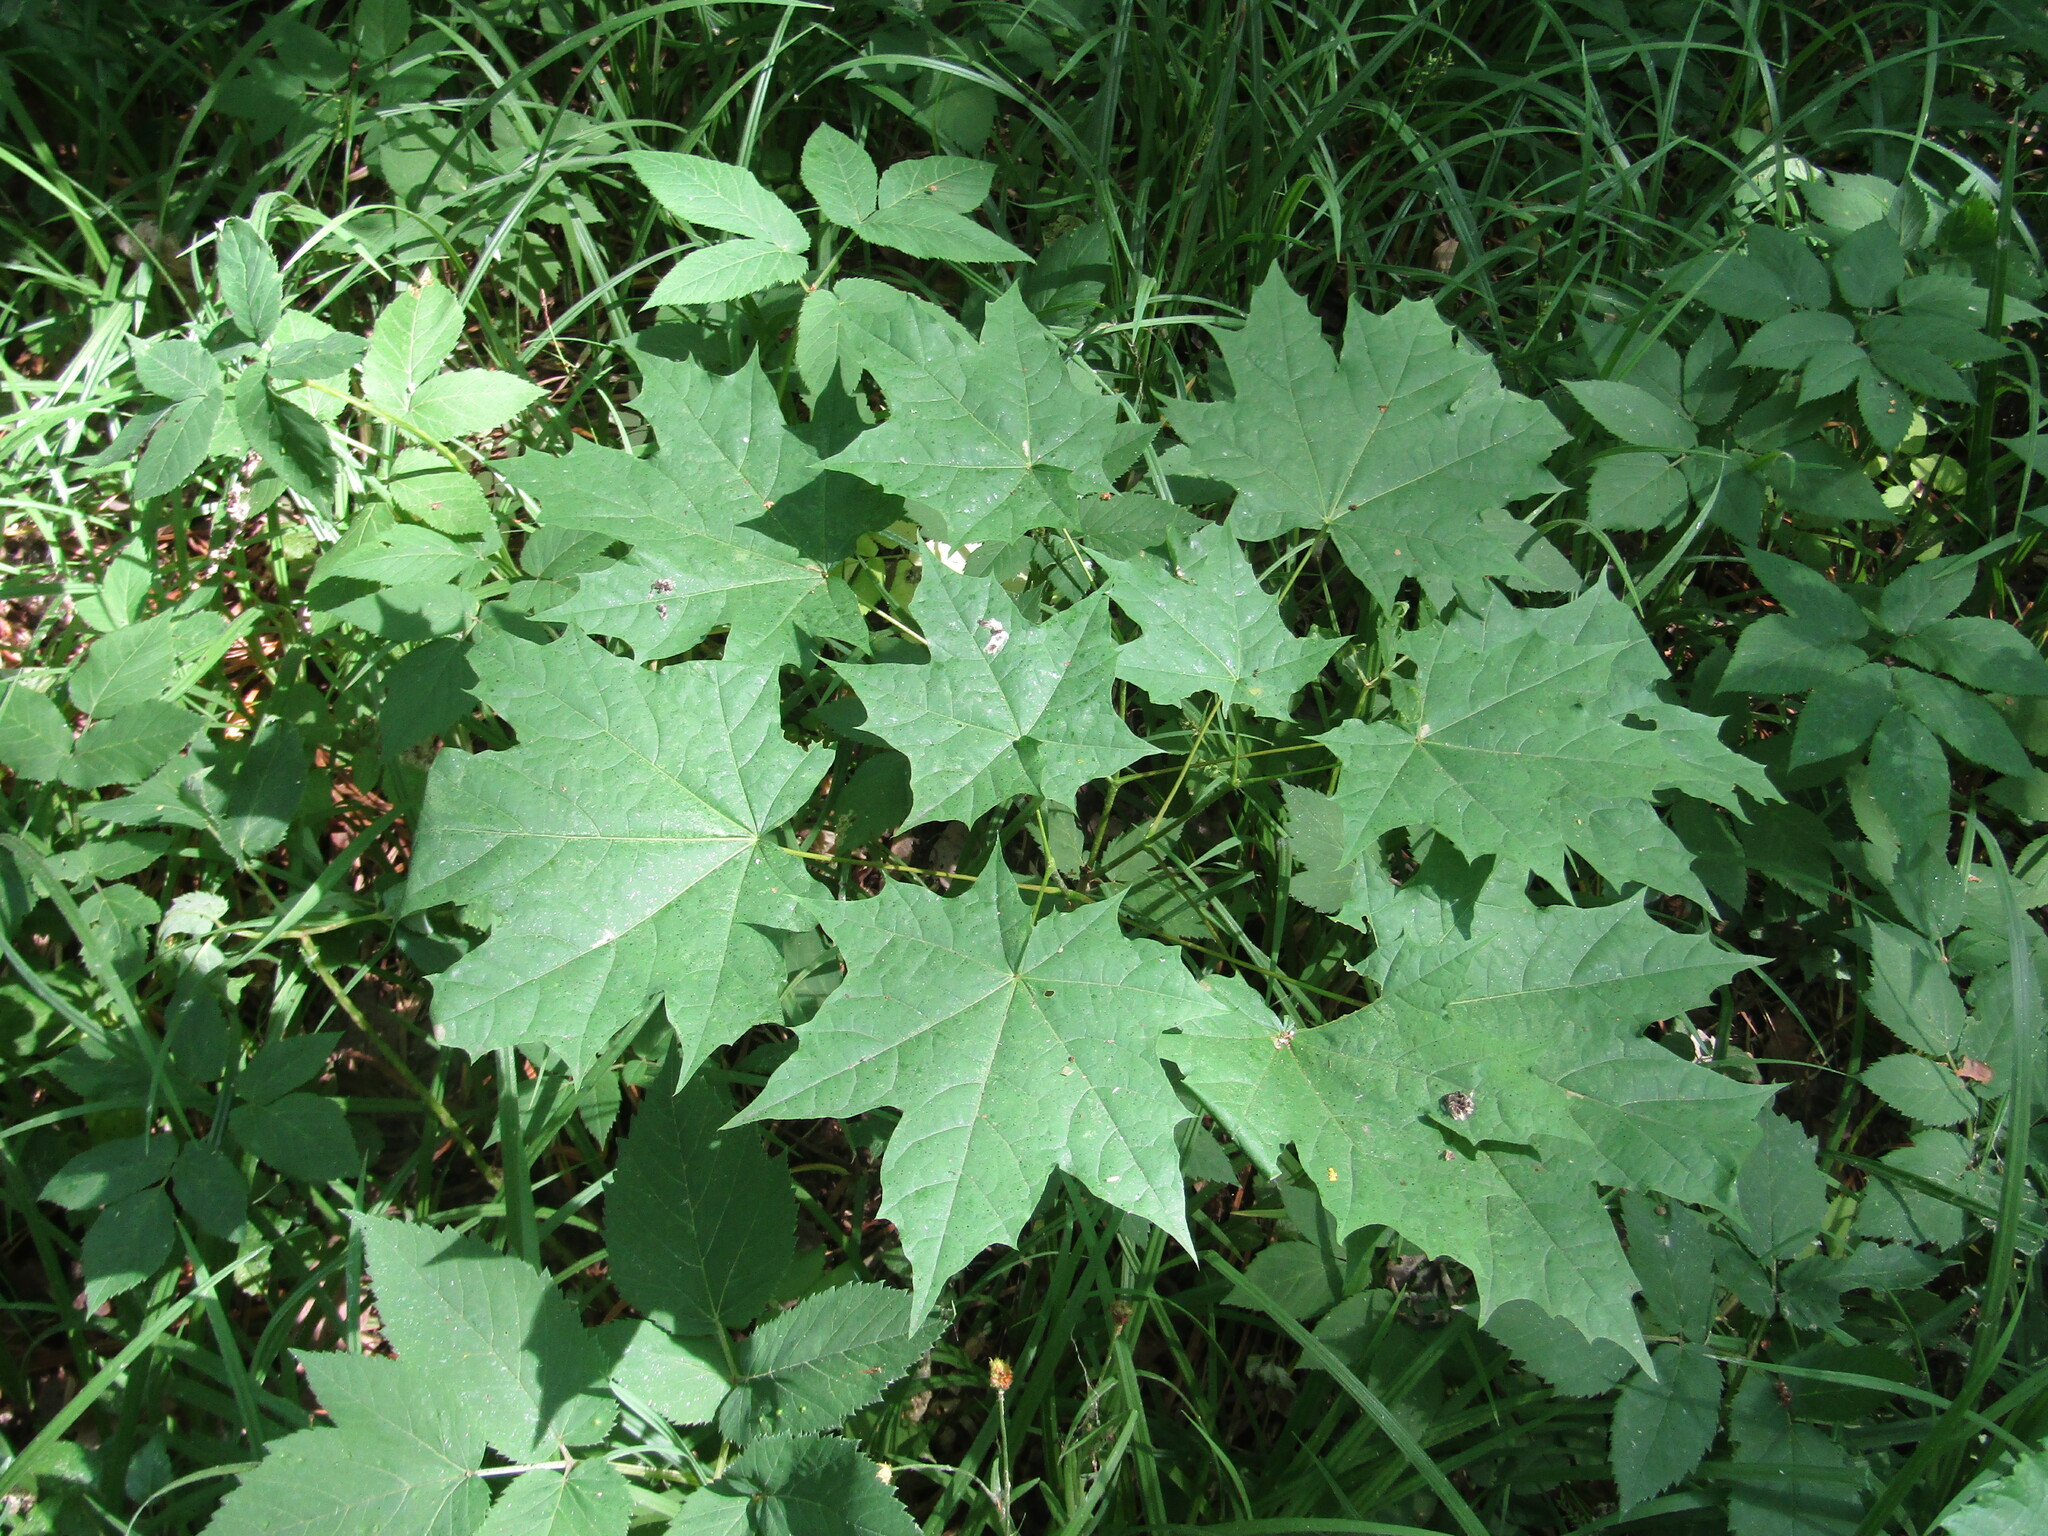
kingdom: Plantae
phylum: Tracheophyta
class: Magnoliopsida
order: Sapindales
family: Sapindaceae
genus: Acer
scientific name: Acer platanoides
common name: Norway maple
